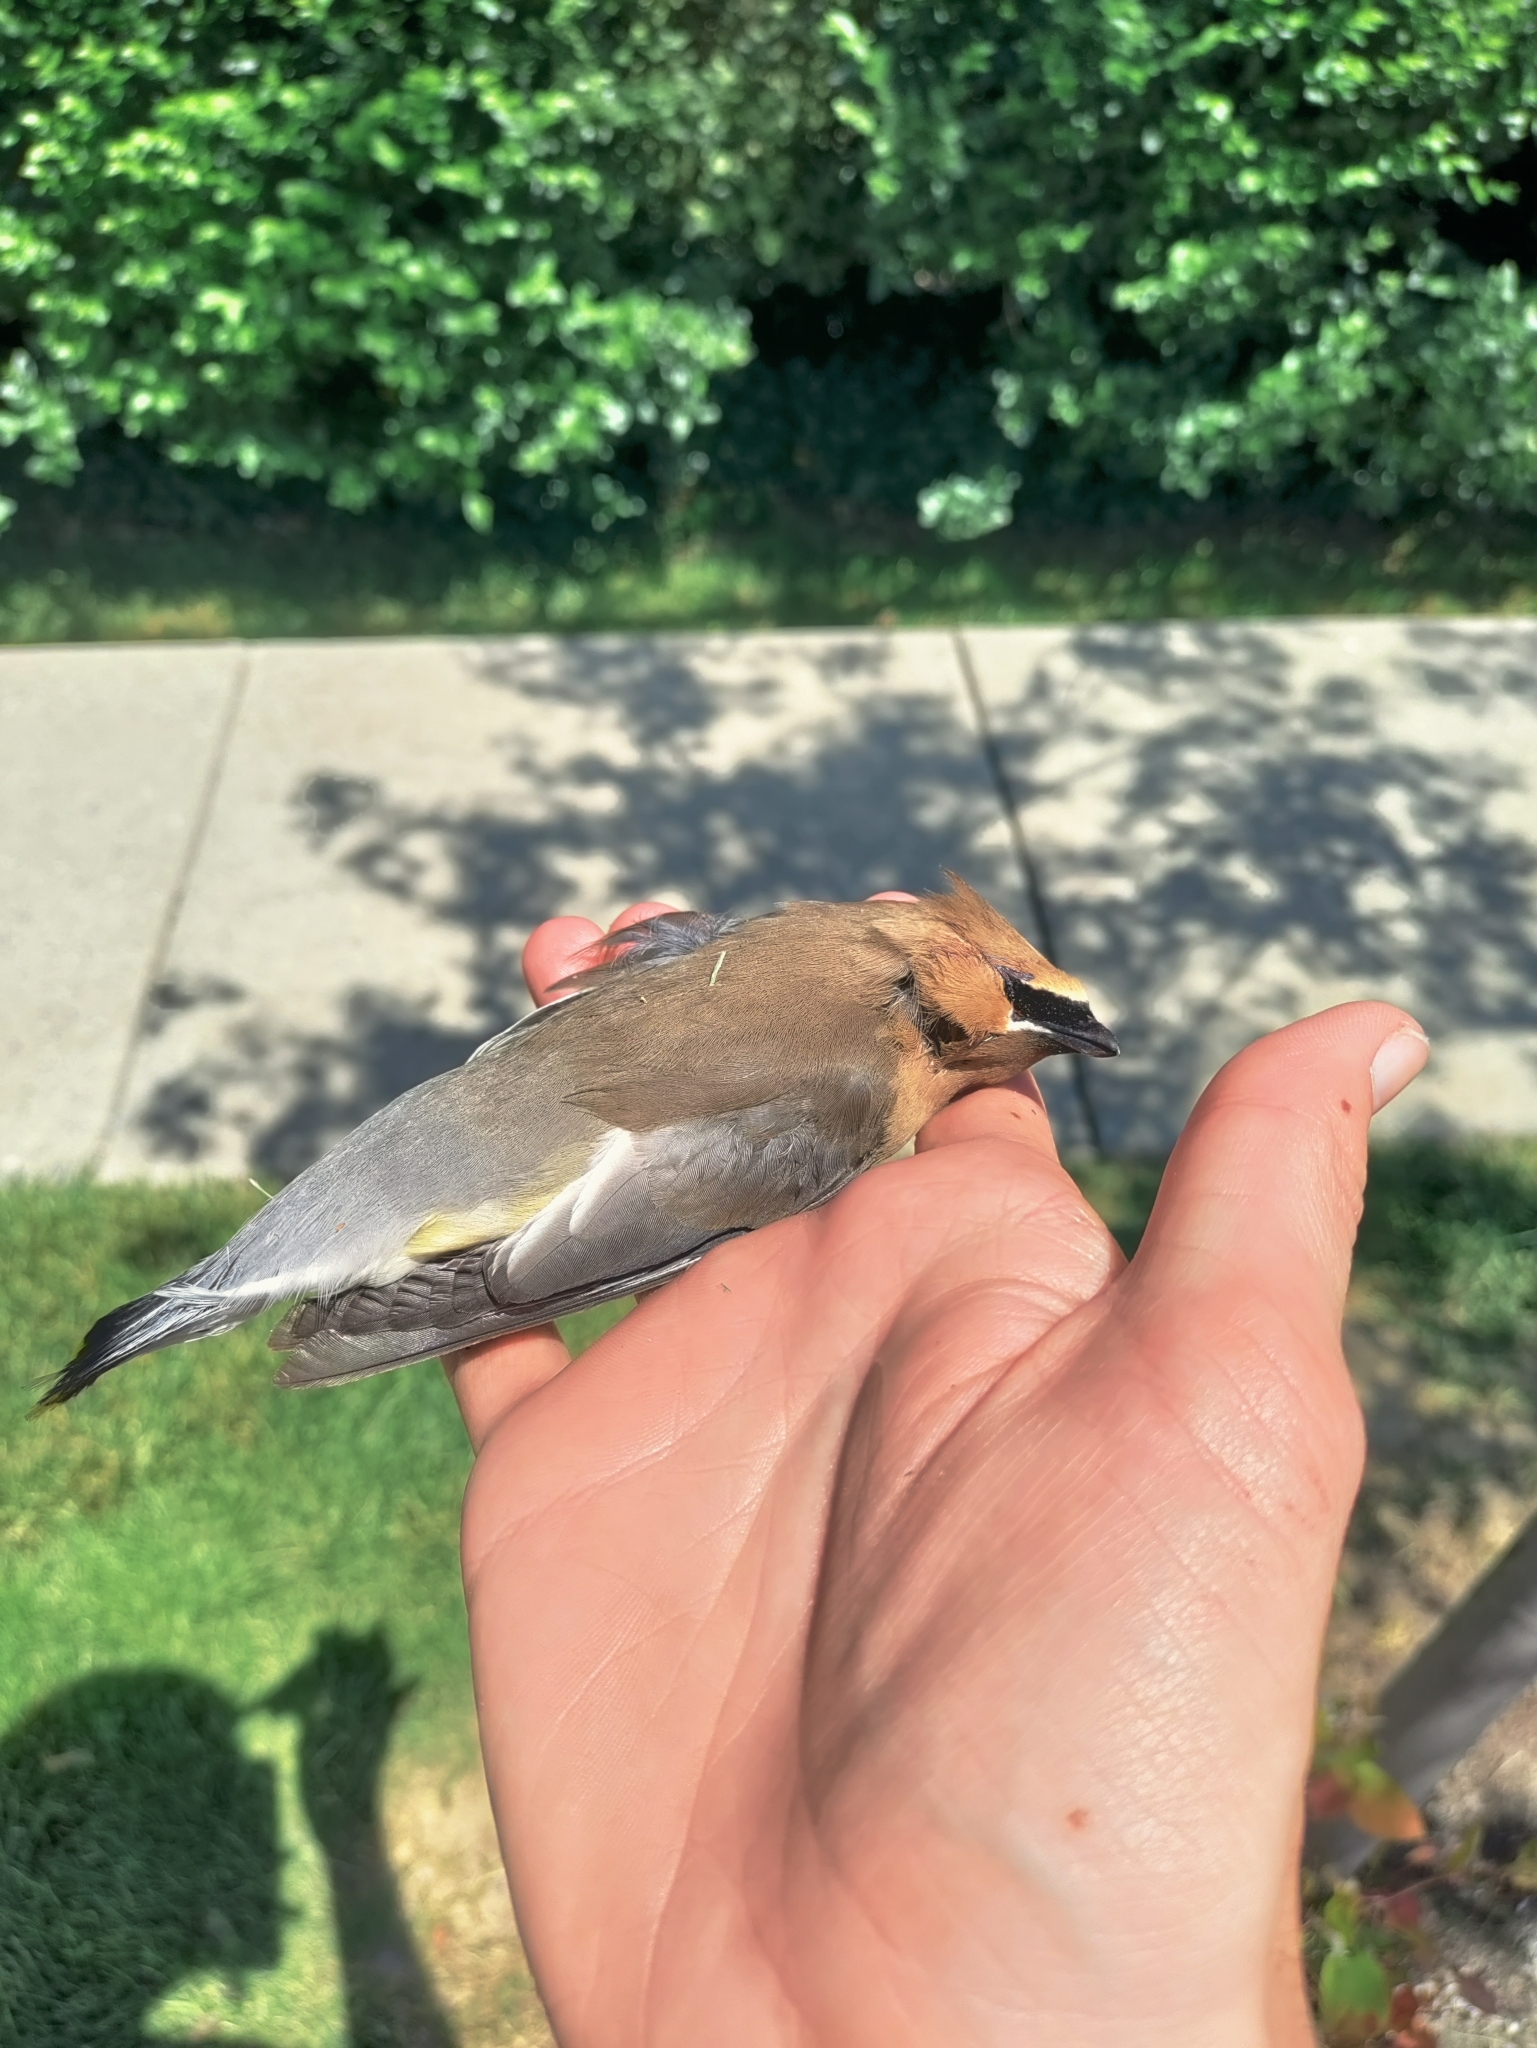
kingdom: Animalia
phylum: Chordata
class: Aves
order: Passeriformes
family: Bombycillidae
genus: Bombycilla
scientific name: Bombycilla cedrorum
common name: Cedar waxwing
